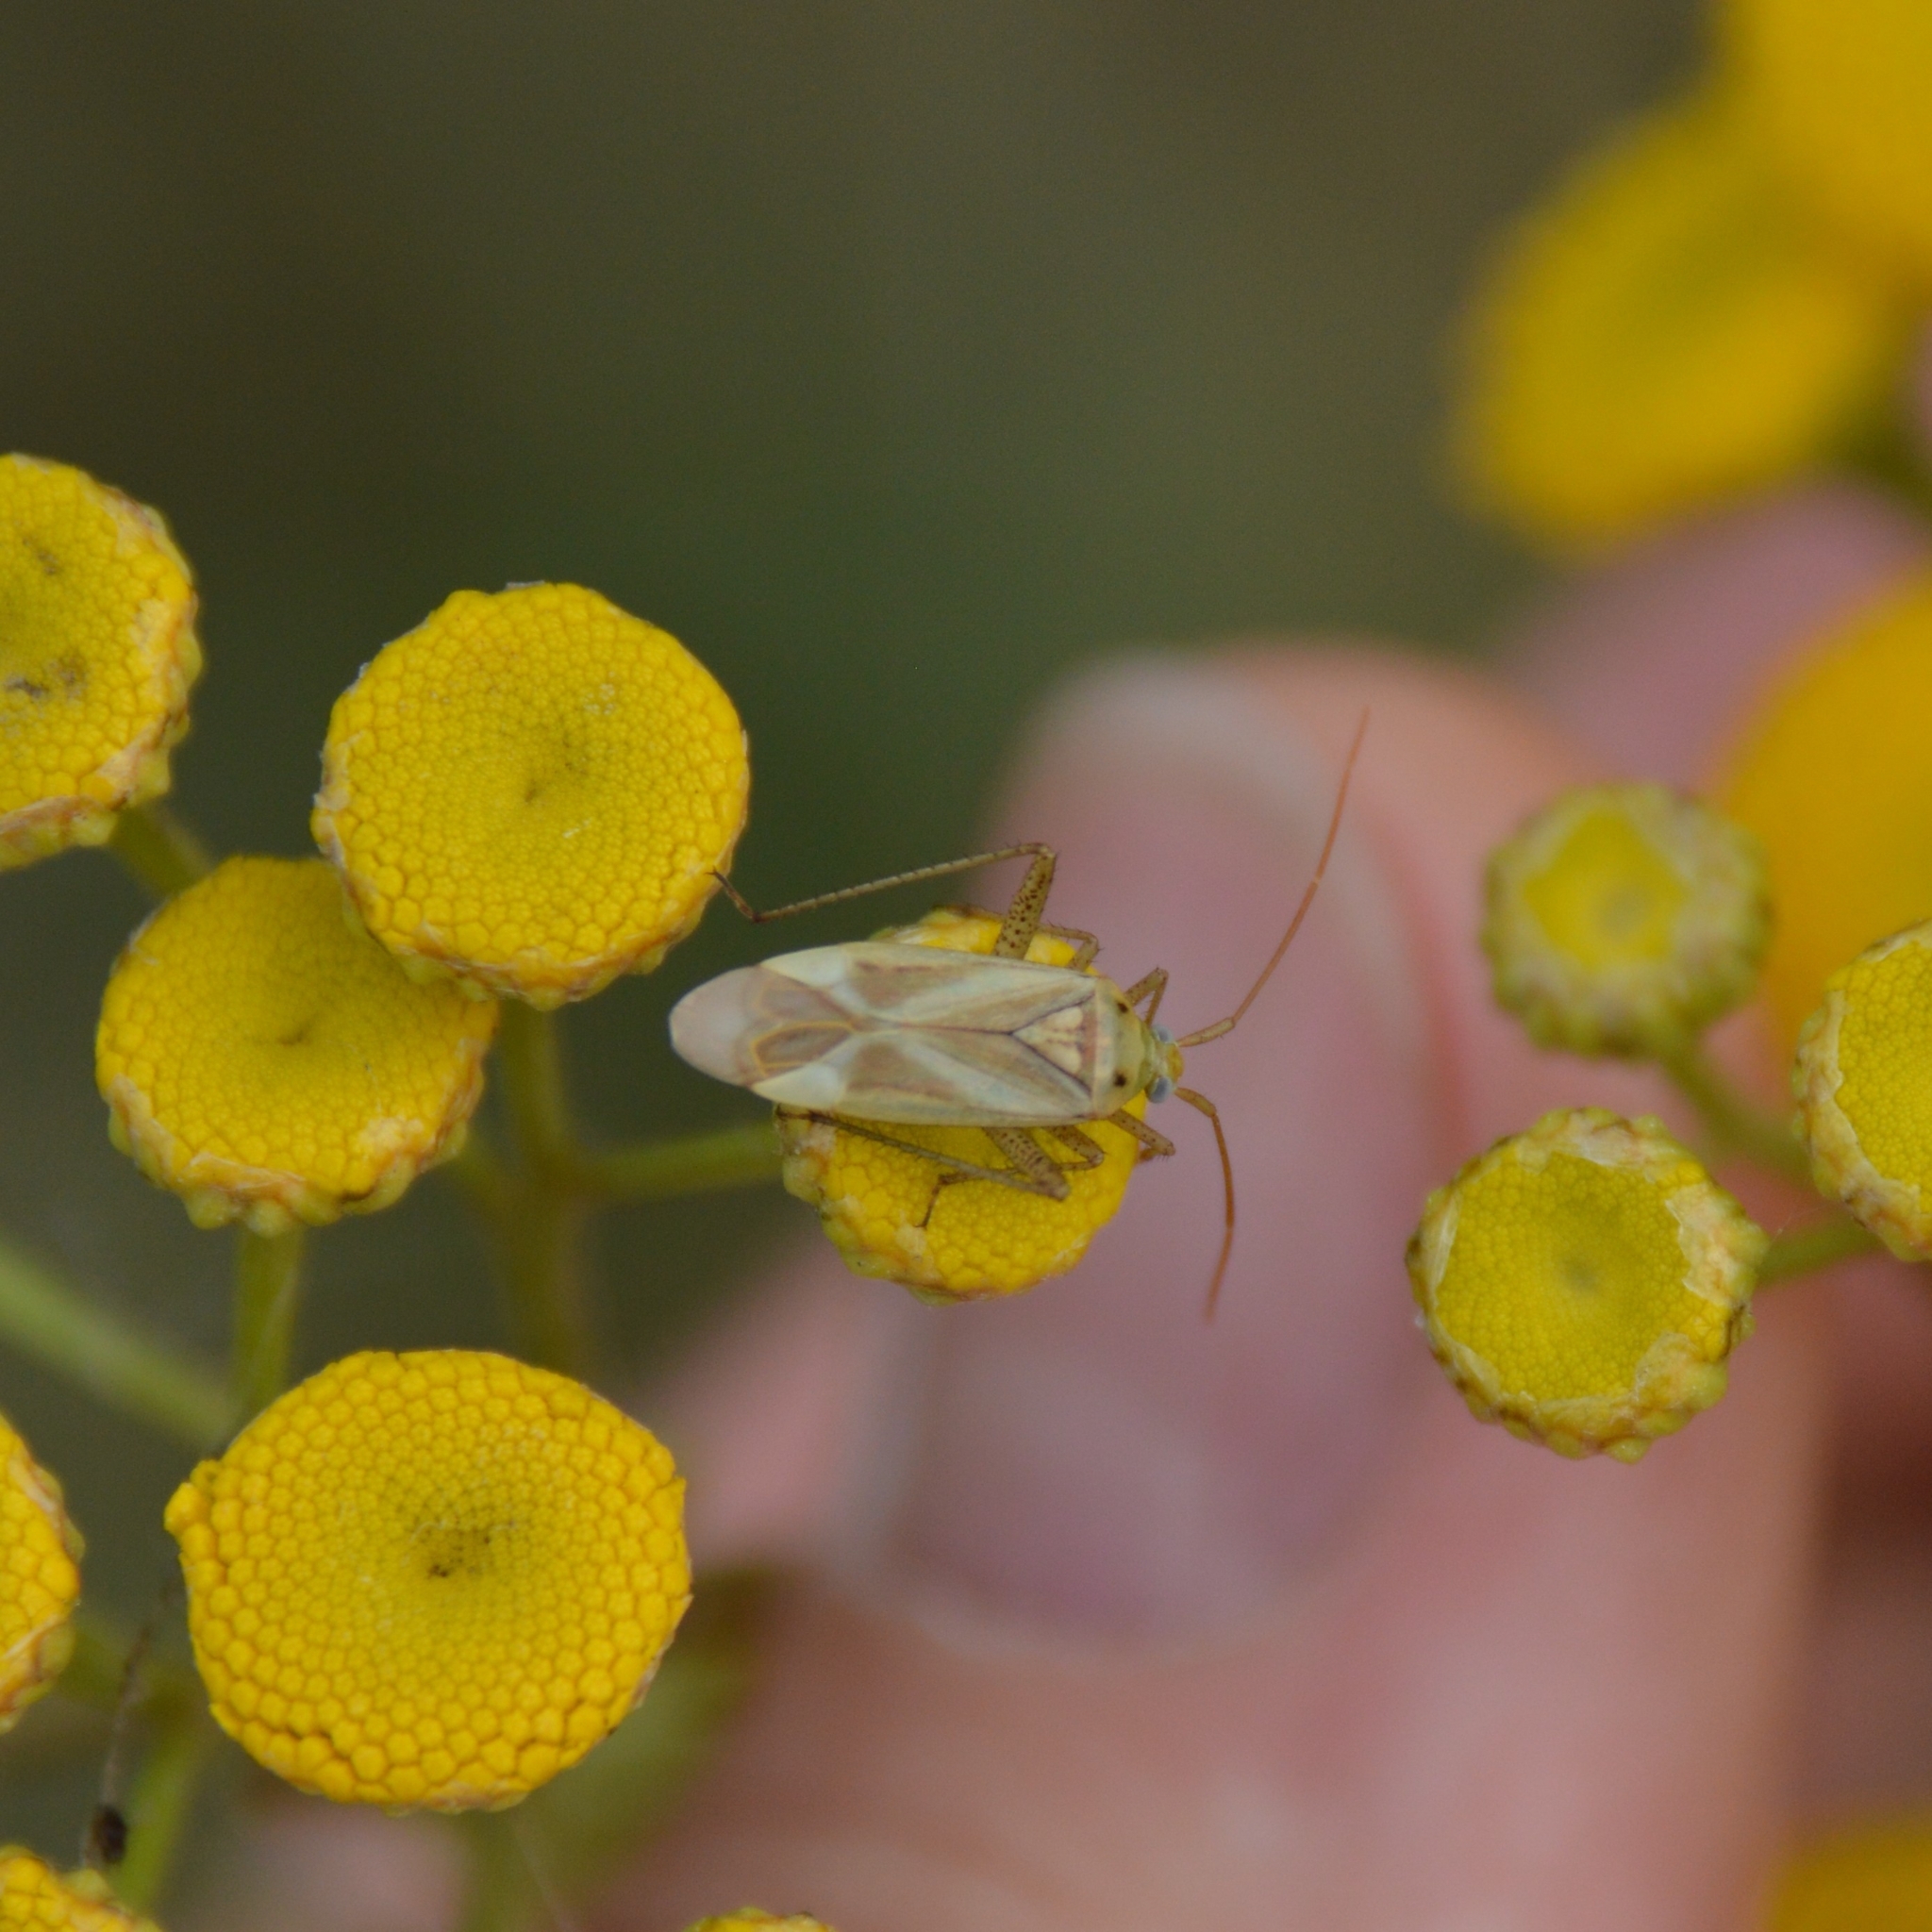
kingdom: Animalia
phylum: Arthropoda
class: Insecta
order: Hemiptera
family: Miridae
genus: Adelphocoris
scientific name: Adelphocoris lineolatus
